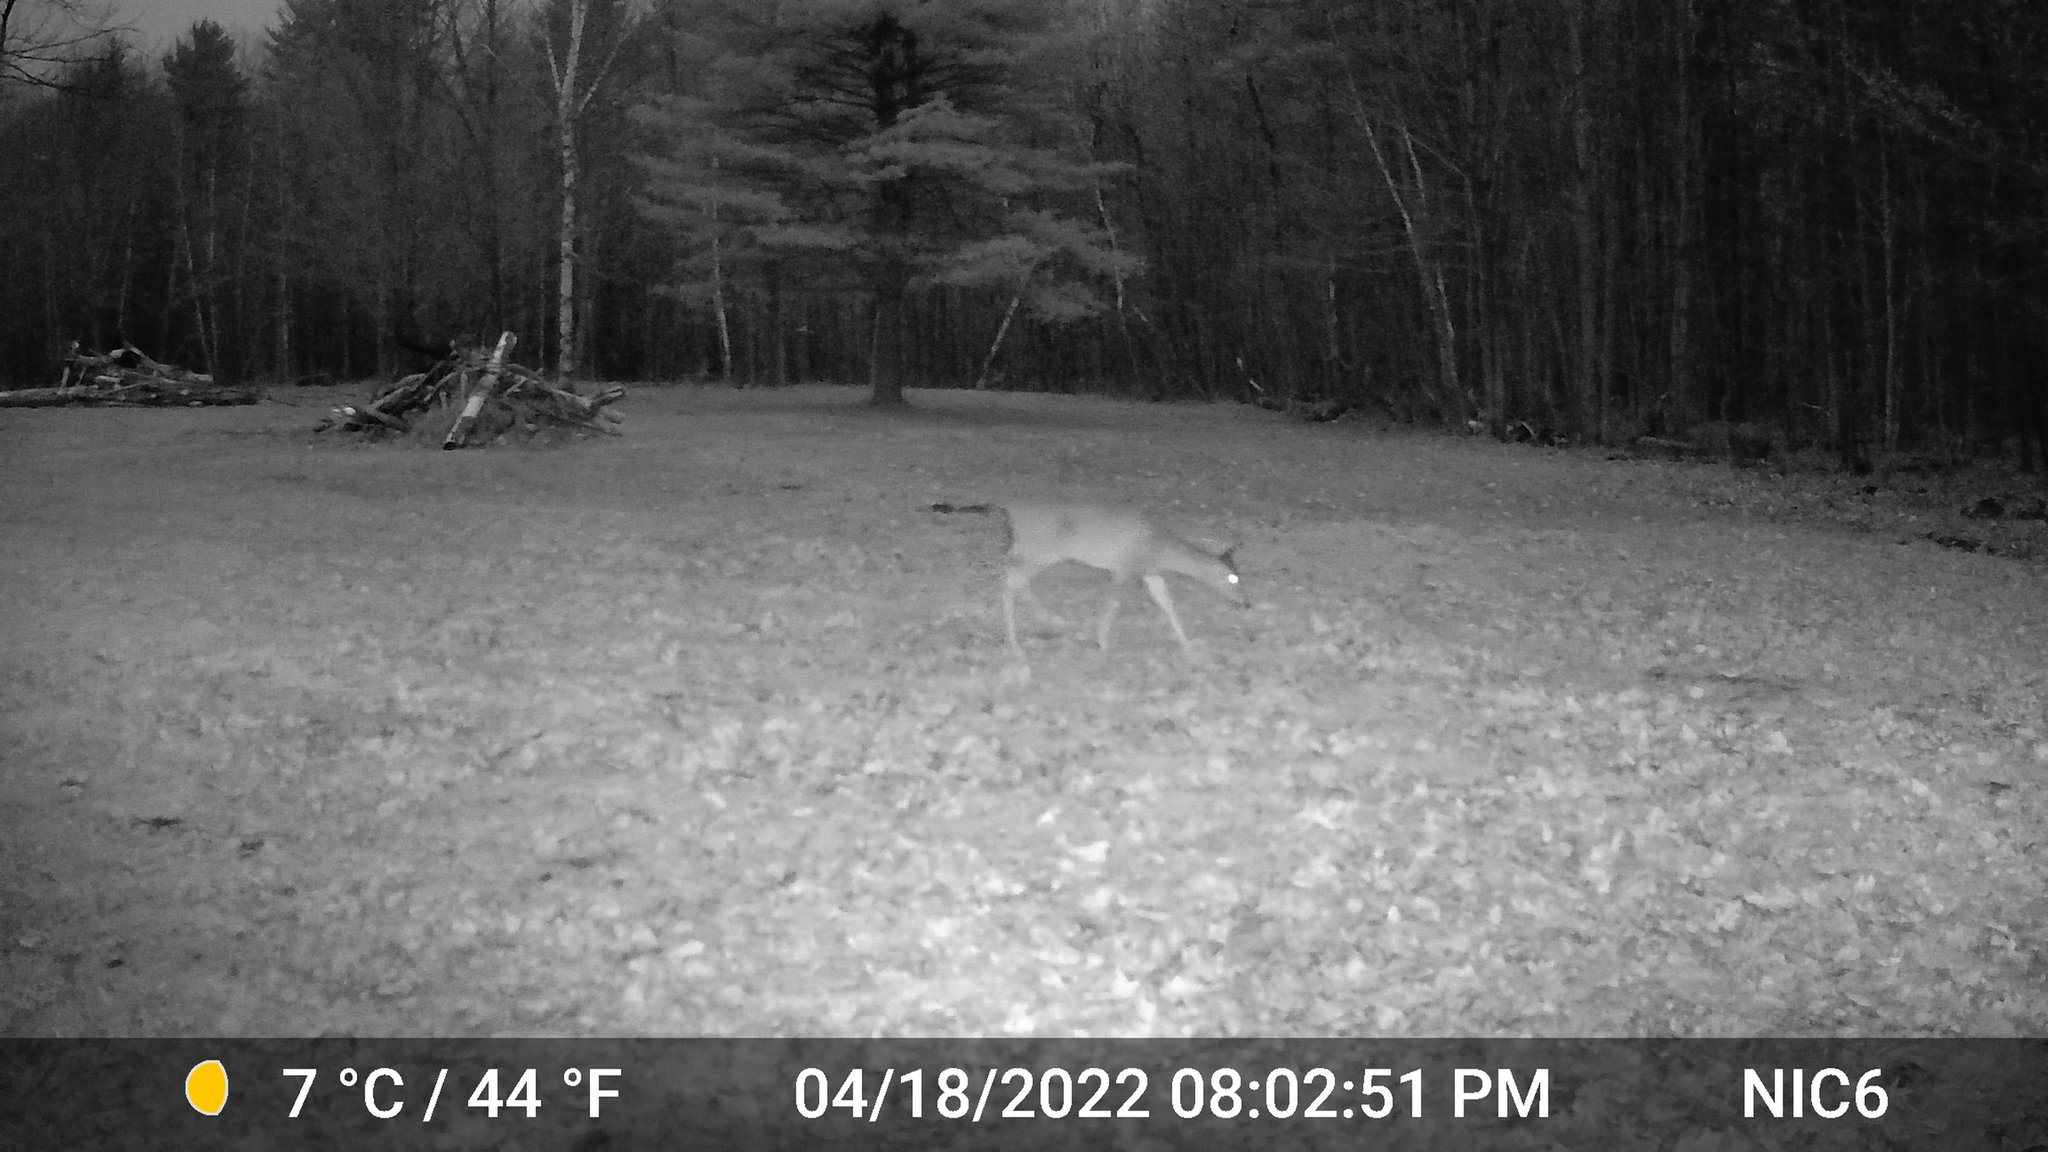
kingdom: Animalia
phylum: Chordata
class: Mammalia
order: Artiodactyla
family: Cervidae
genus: Odocoileus
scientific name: Odocoileus virginianus
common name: White-tailed deer
